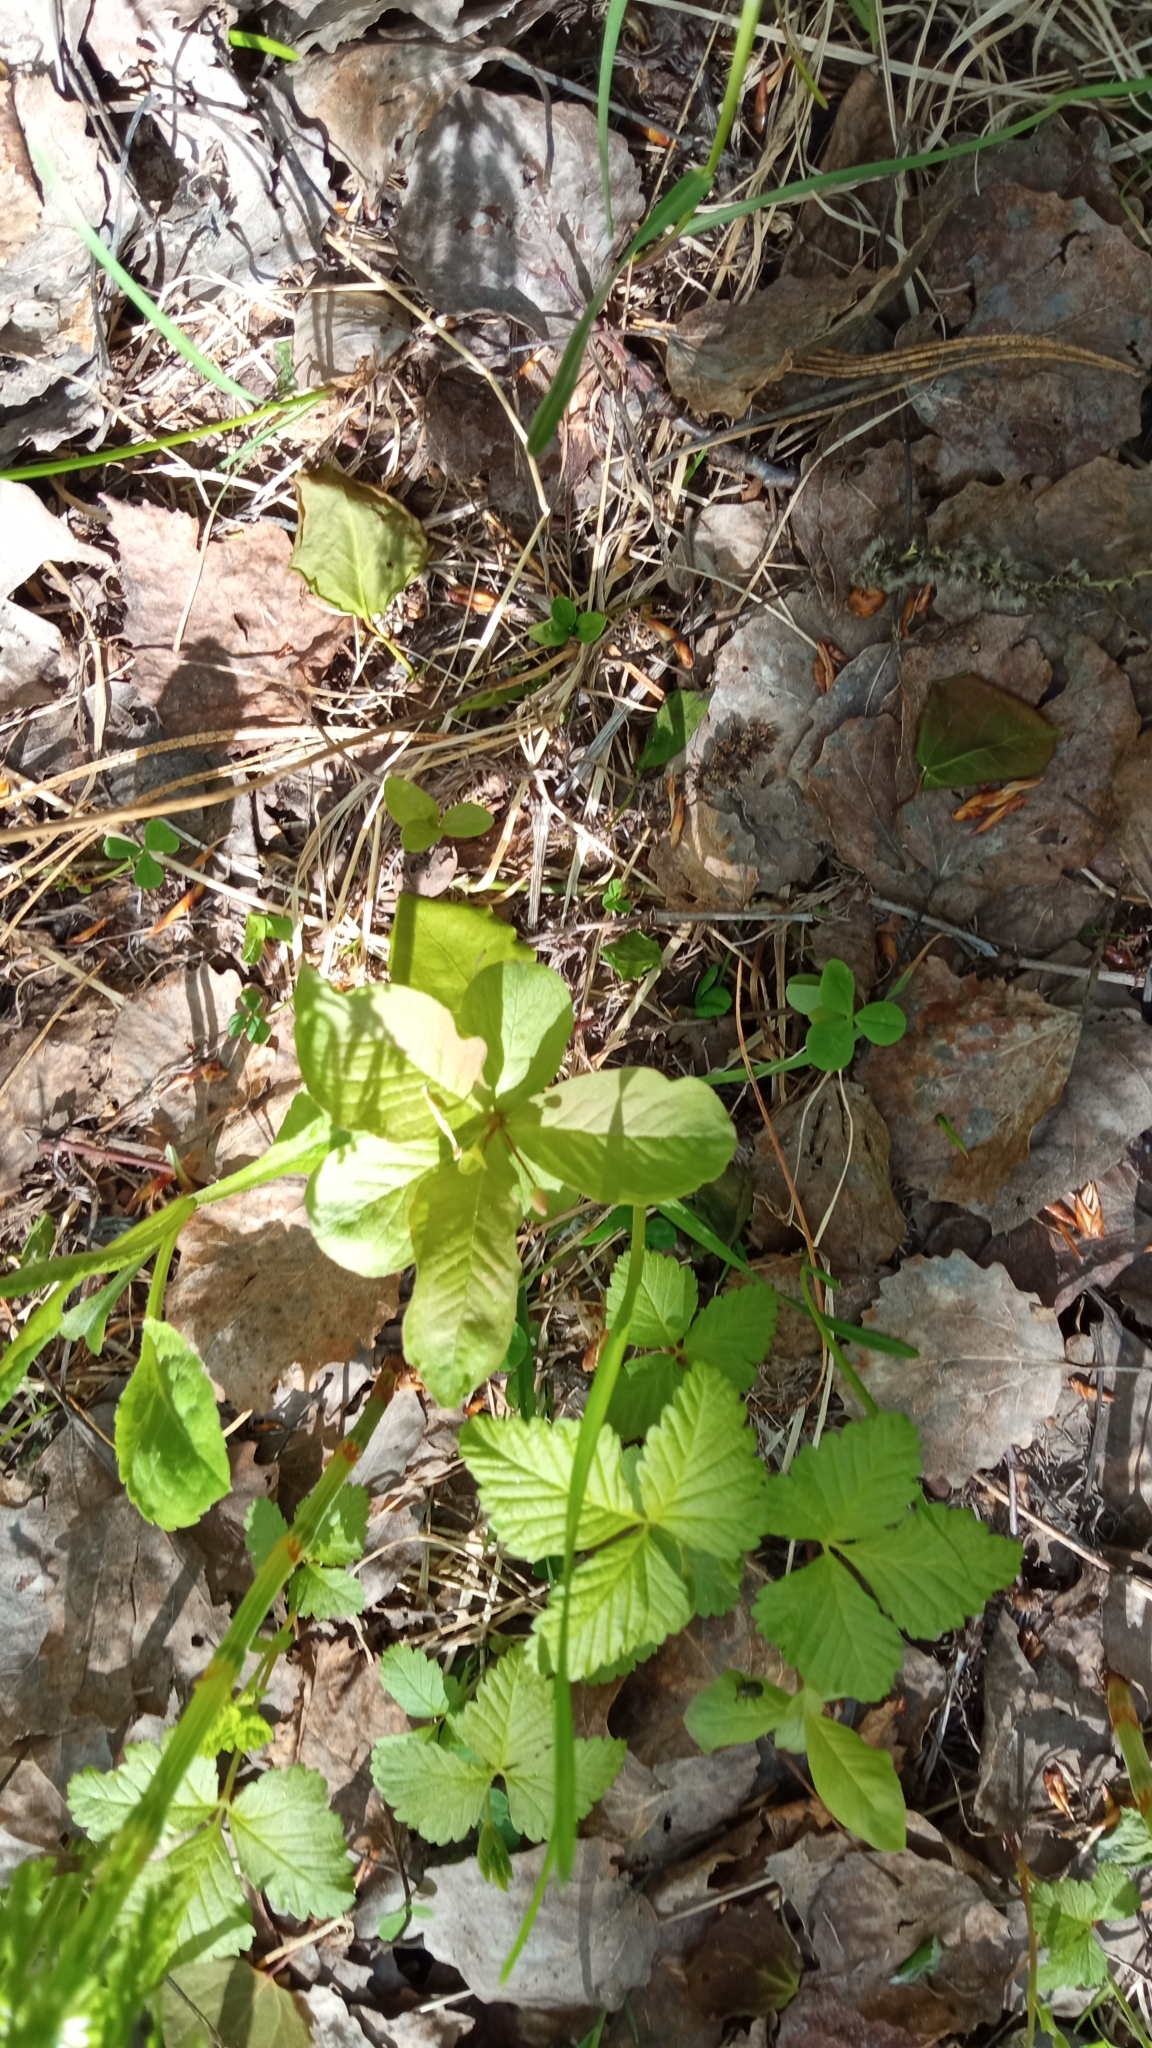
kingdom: Plantae
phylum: Tracheophyta
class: Magnoliopsida
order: Ericales
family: Primulaceae
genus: Lysimachia
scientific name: Lysimachia europaea
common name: Arctic starflower
